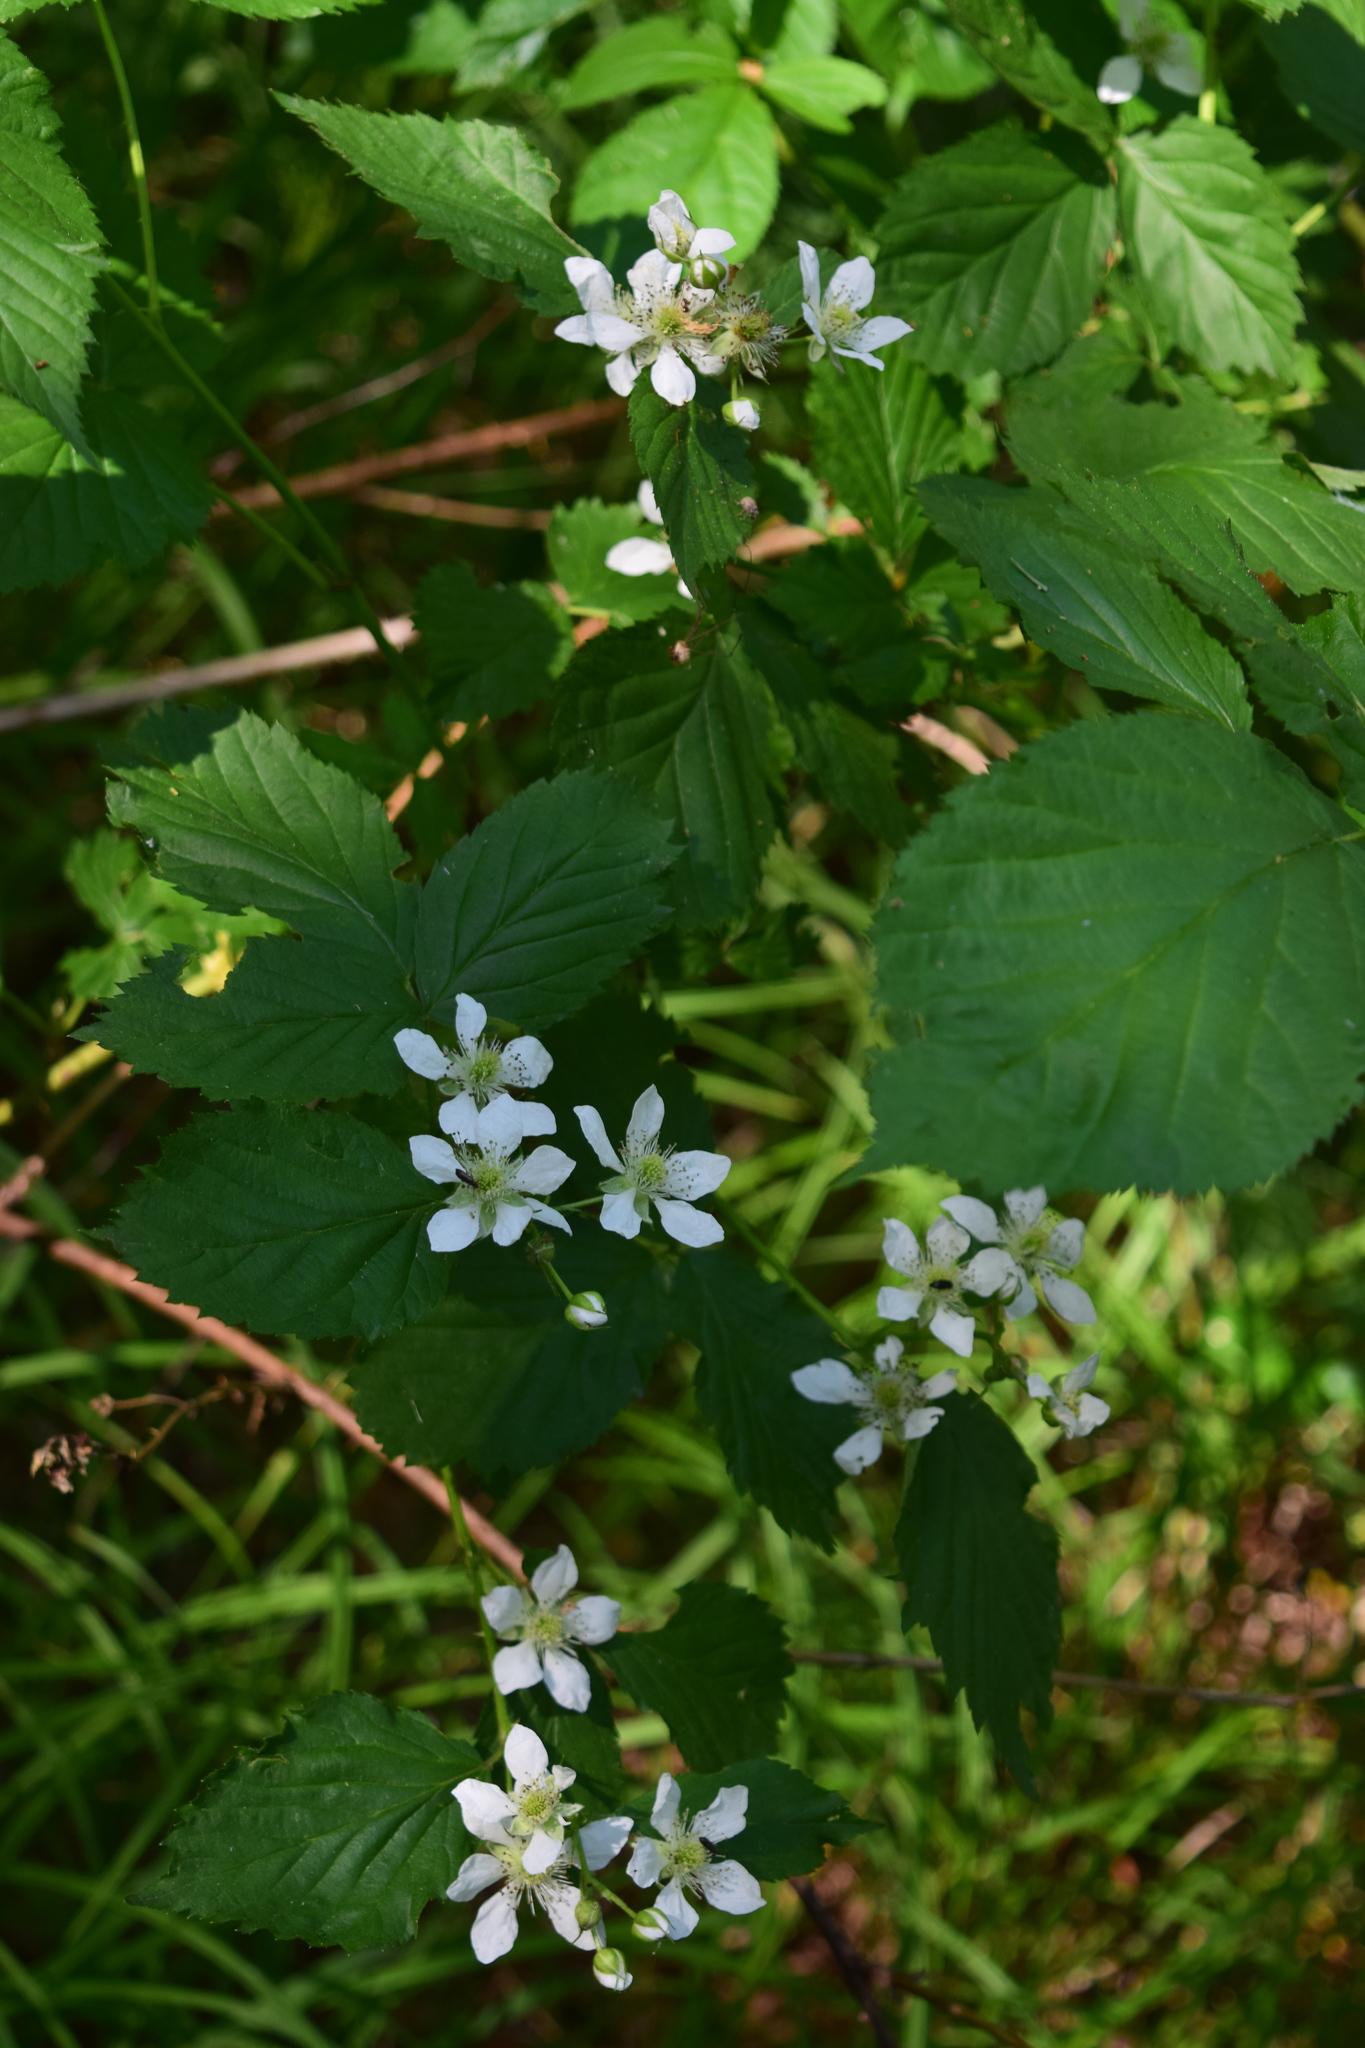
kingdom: Plantae
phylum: Tracheophyta
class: Magnoliopsida
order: Rosales
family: Rosaceae
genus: Rubus
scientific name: Rubus polonicus
